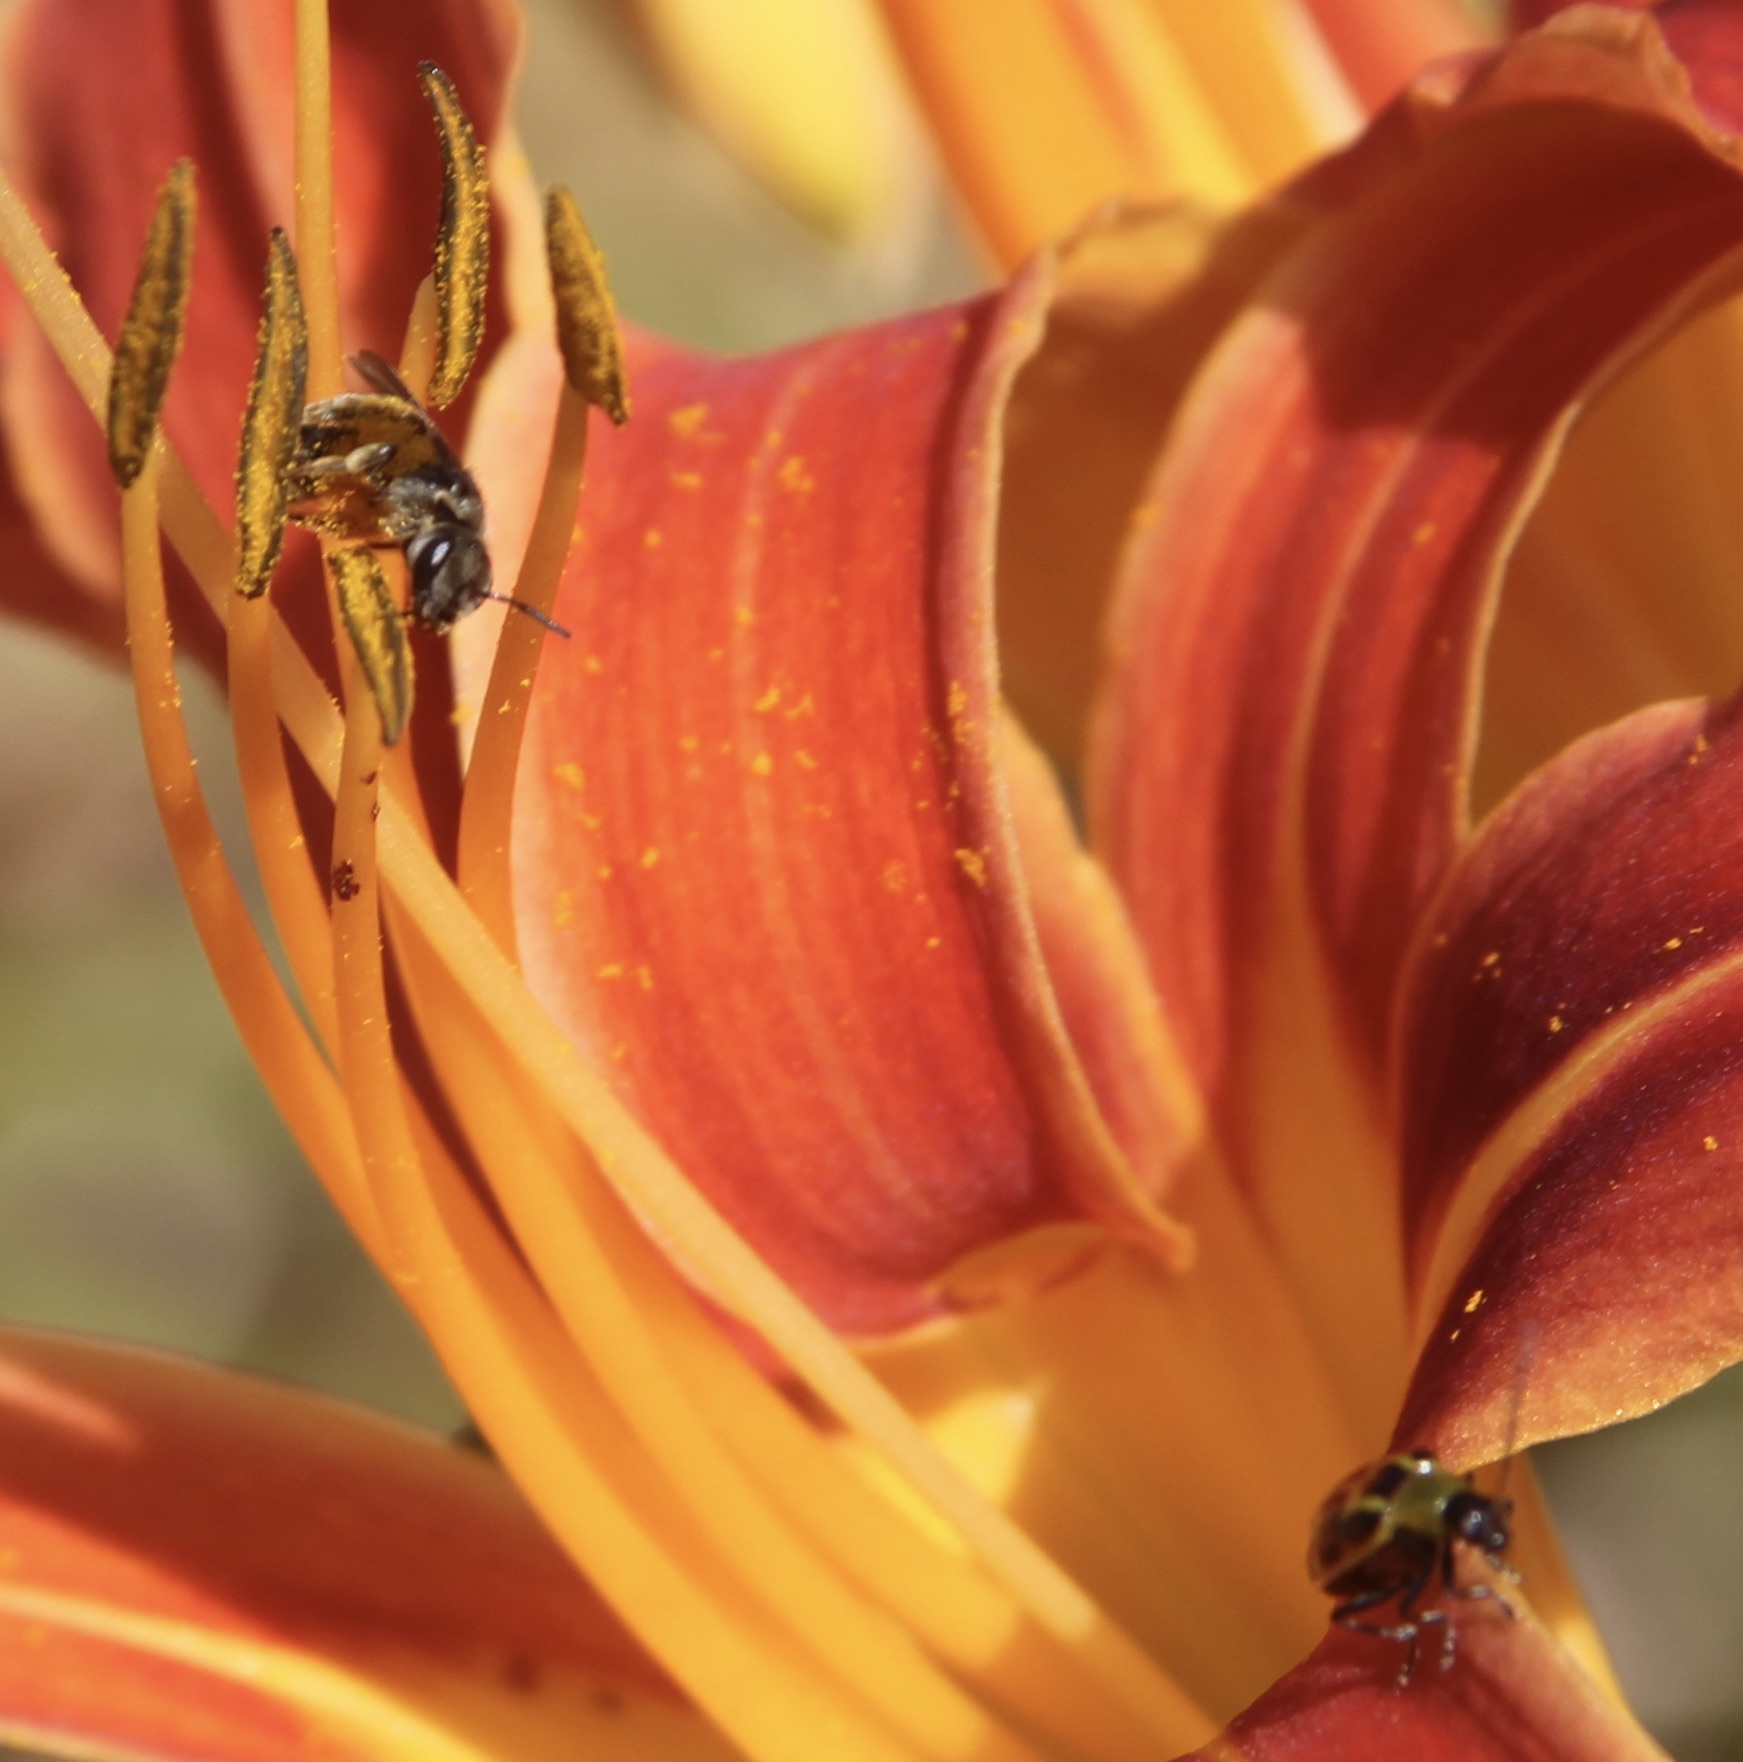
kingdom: Animalia
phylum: Arthropoda
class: Insecta
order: Coleoptera
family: Chrysomelidae
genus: Diabrotica
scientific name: Diabrotica undecimpunctata
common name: Spotted cucumber beetle
